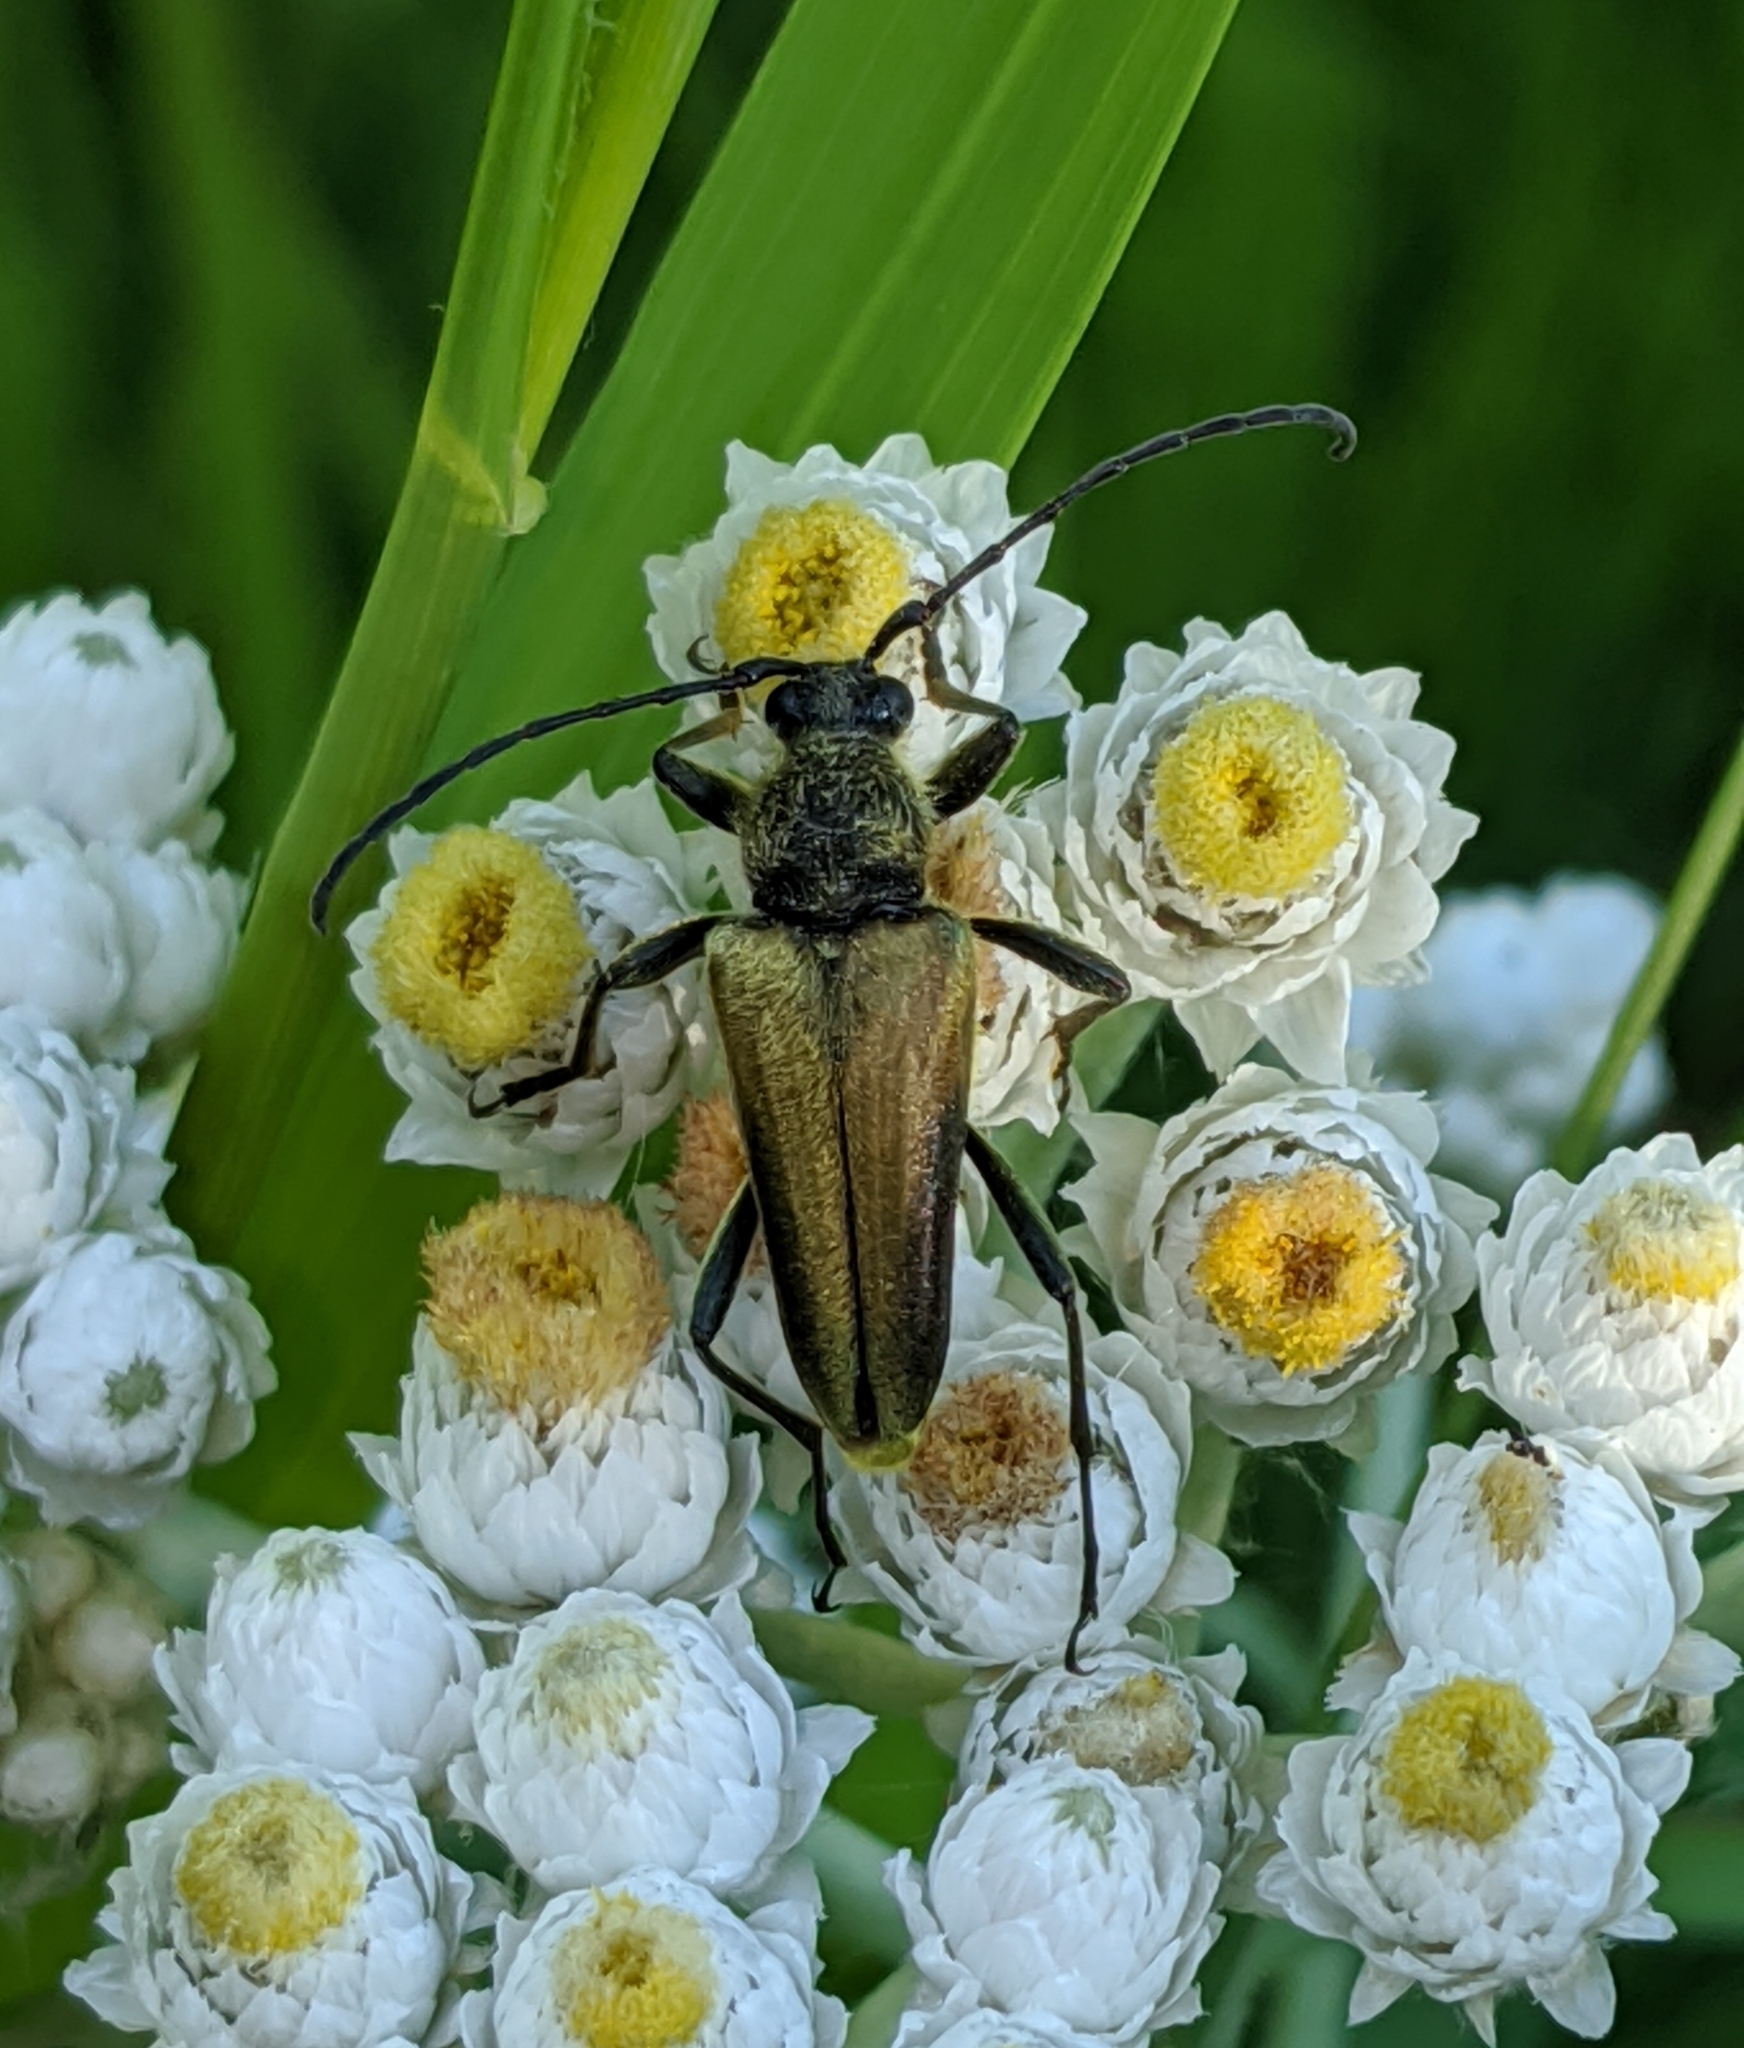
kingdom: Animalia
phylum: Arthropoda
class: Insecta
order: Coleoptera
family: Cerambycidae
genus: Cosmosalia
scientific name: Cosmosalia chrysocoma
